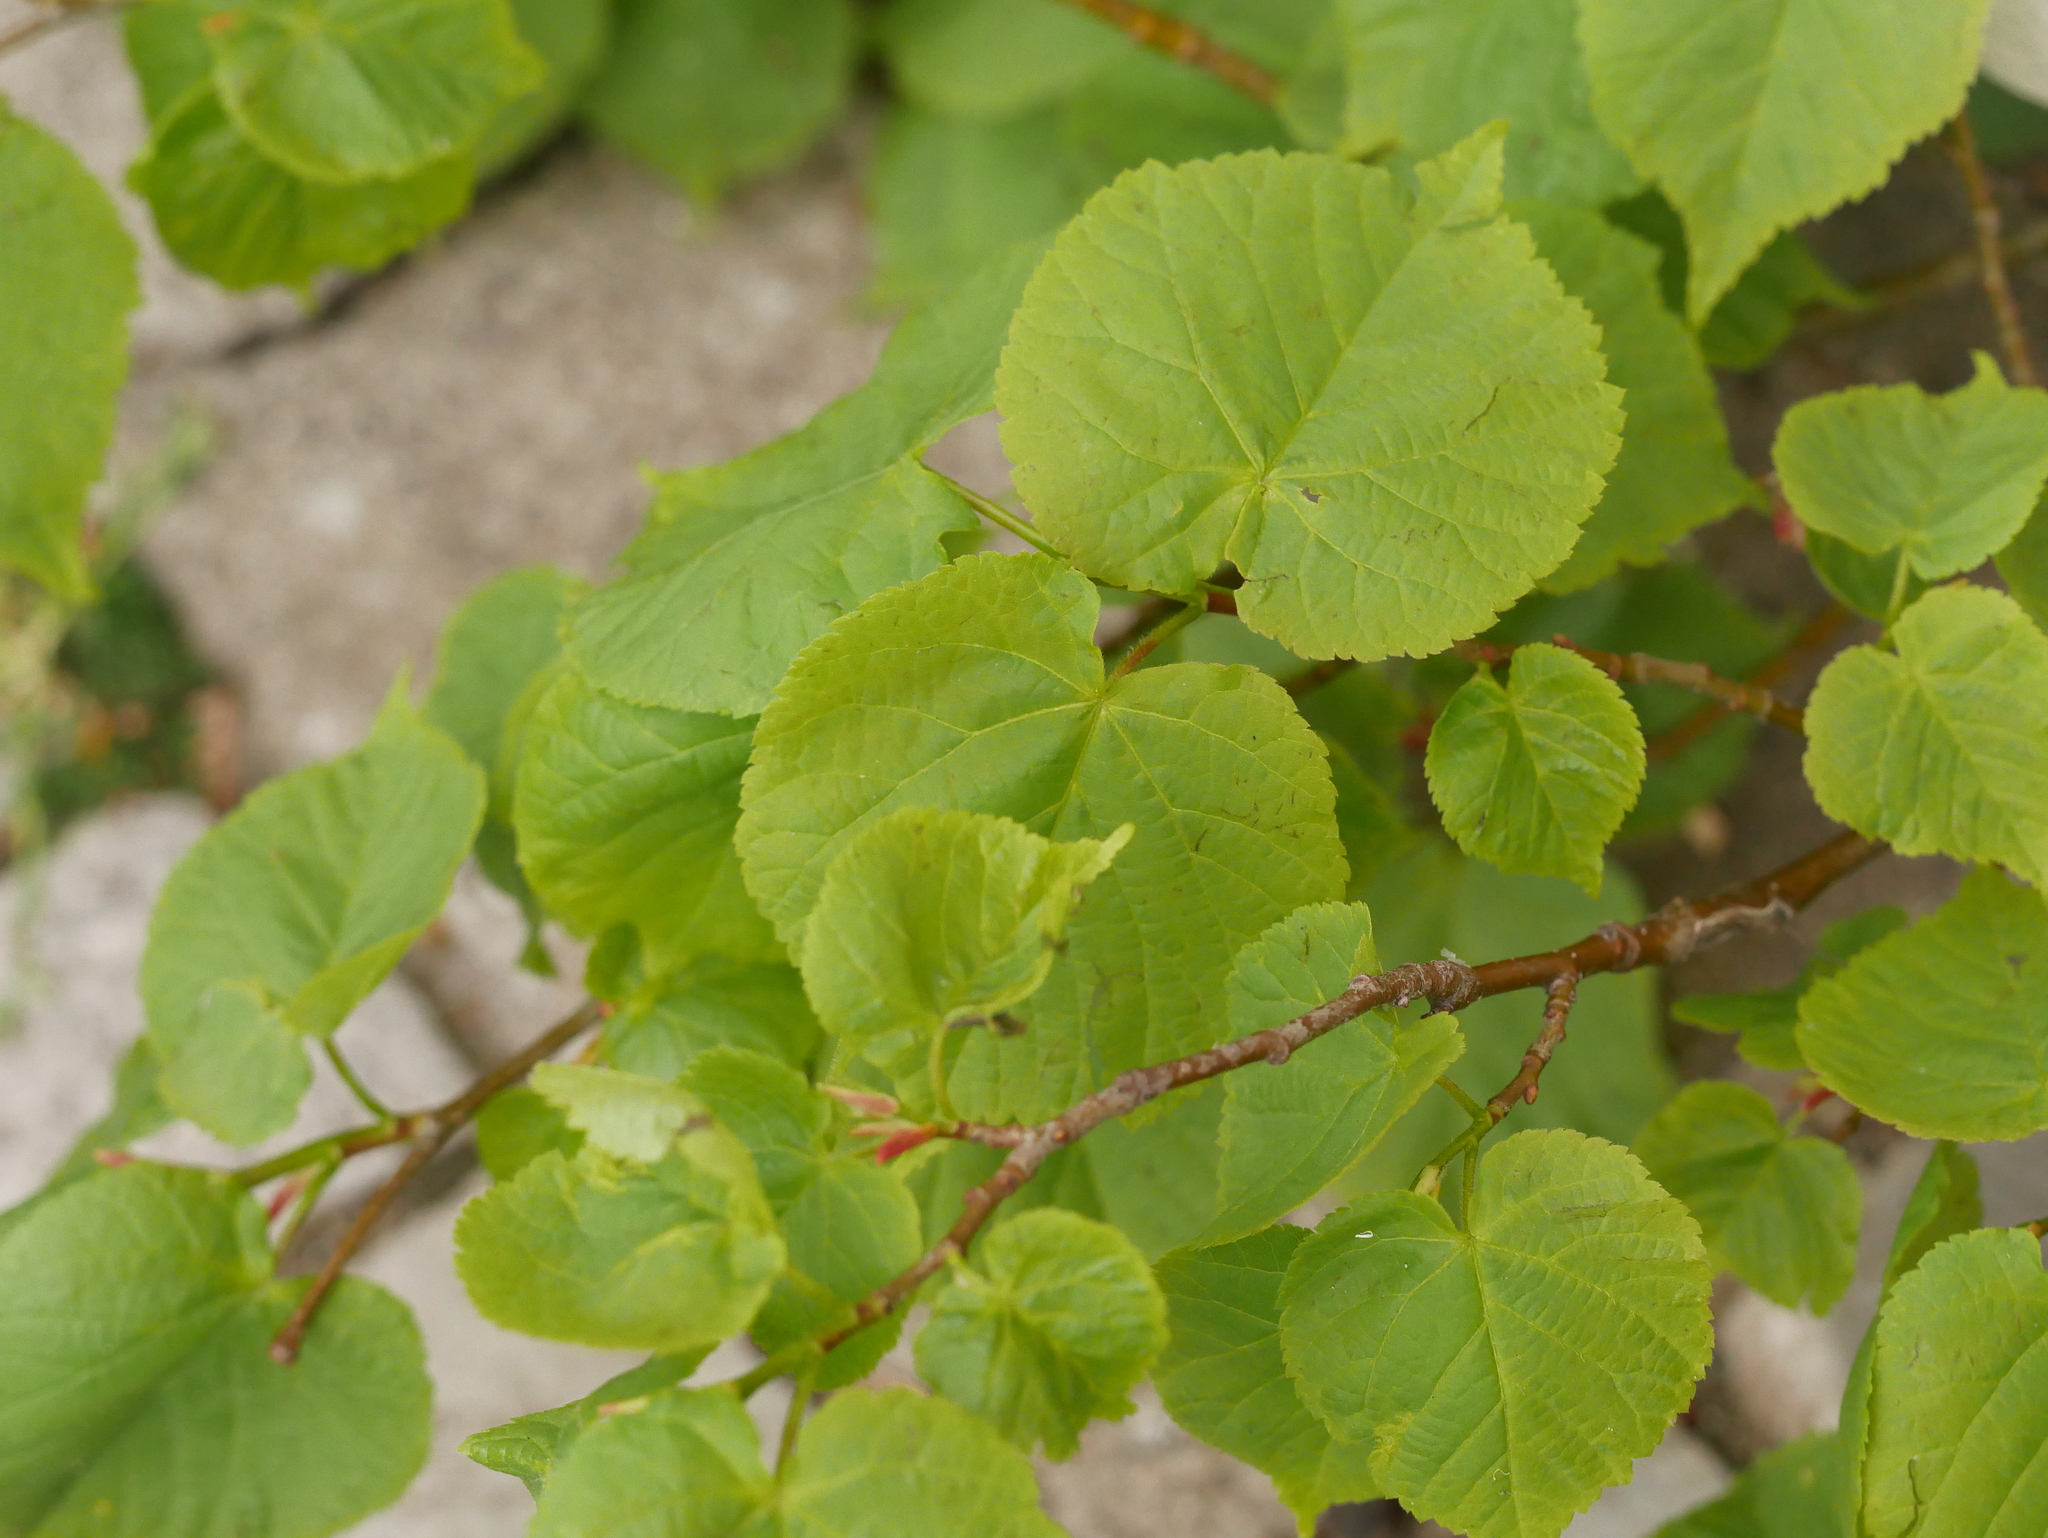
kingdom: Plantae
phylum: Tracheophyta
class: Magnoliopsida
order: Malvales
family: Malvaceae
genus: Tilia
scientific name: Tilia cordata
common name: Small-leaved lime
